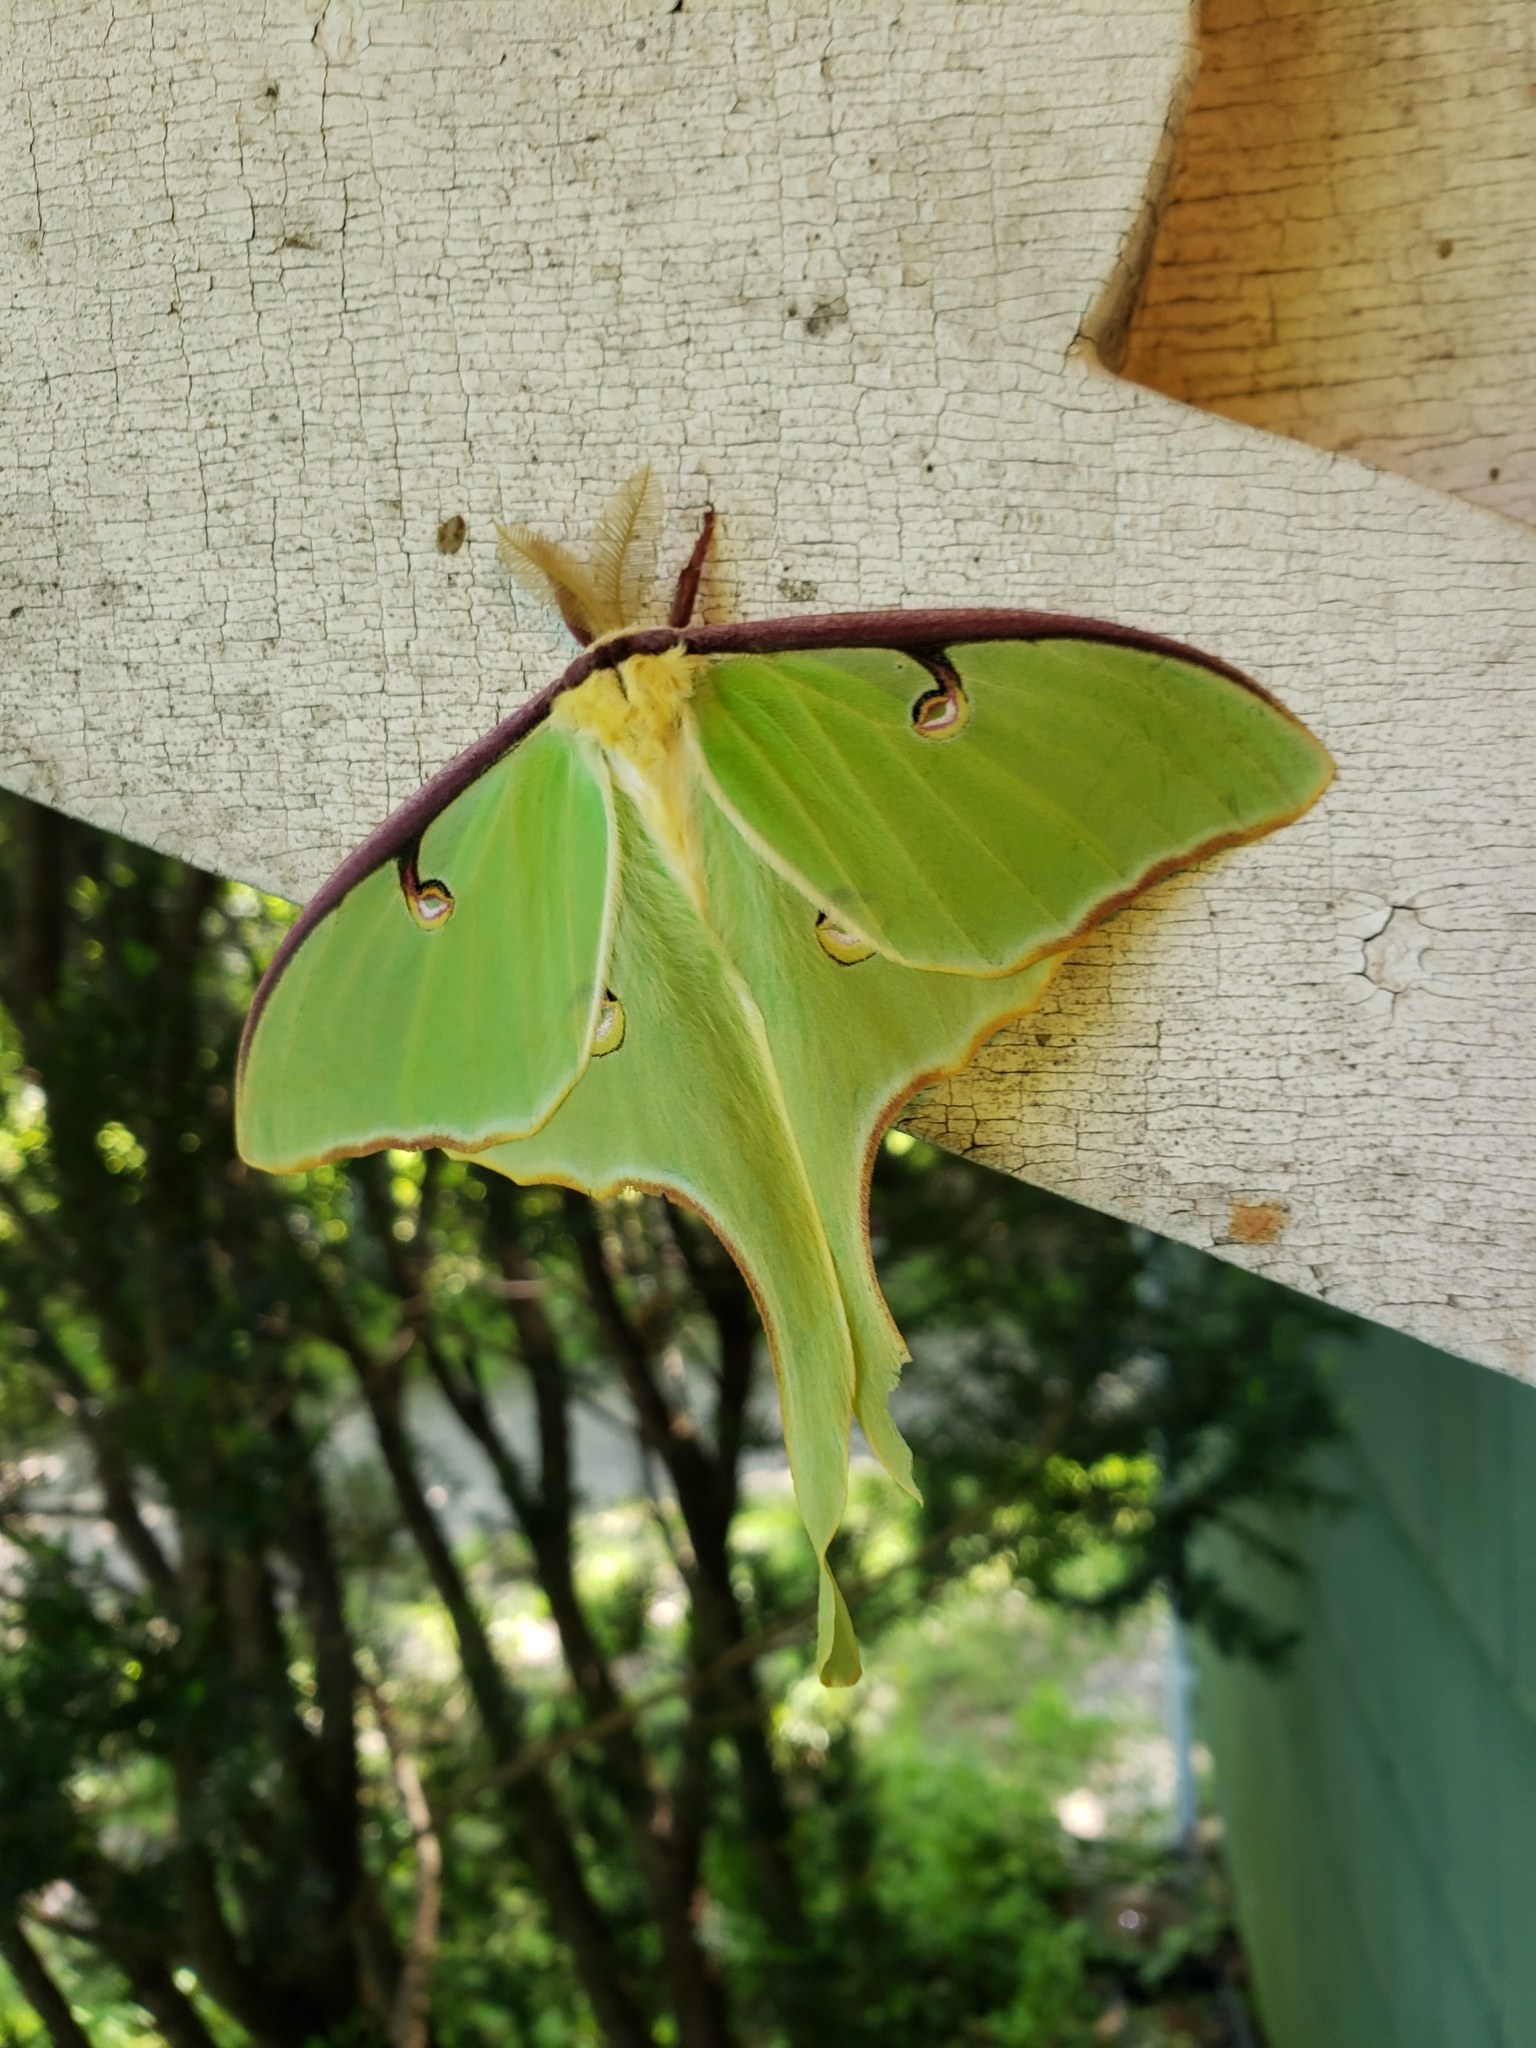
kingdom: Animalia
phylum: Arthropoda
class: Insecta
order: Lepidoptera
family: Saturniidae
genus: Actias
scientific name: Actias luna
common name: Luna moth
